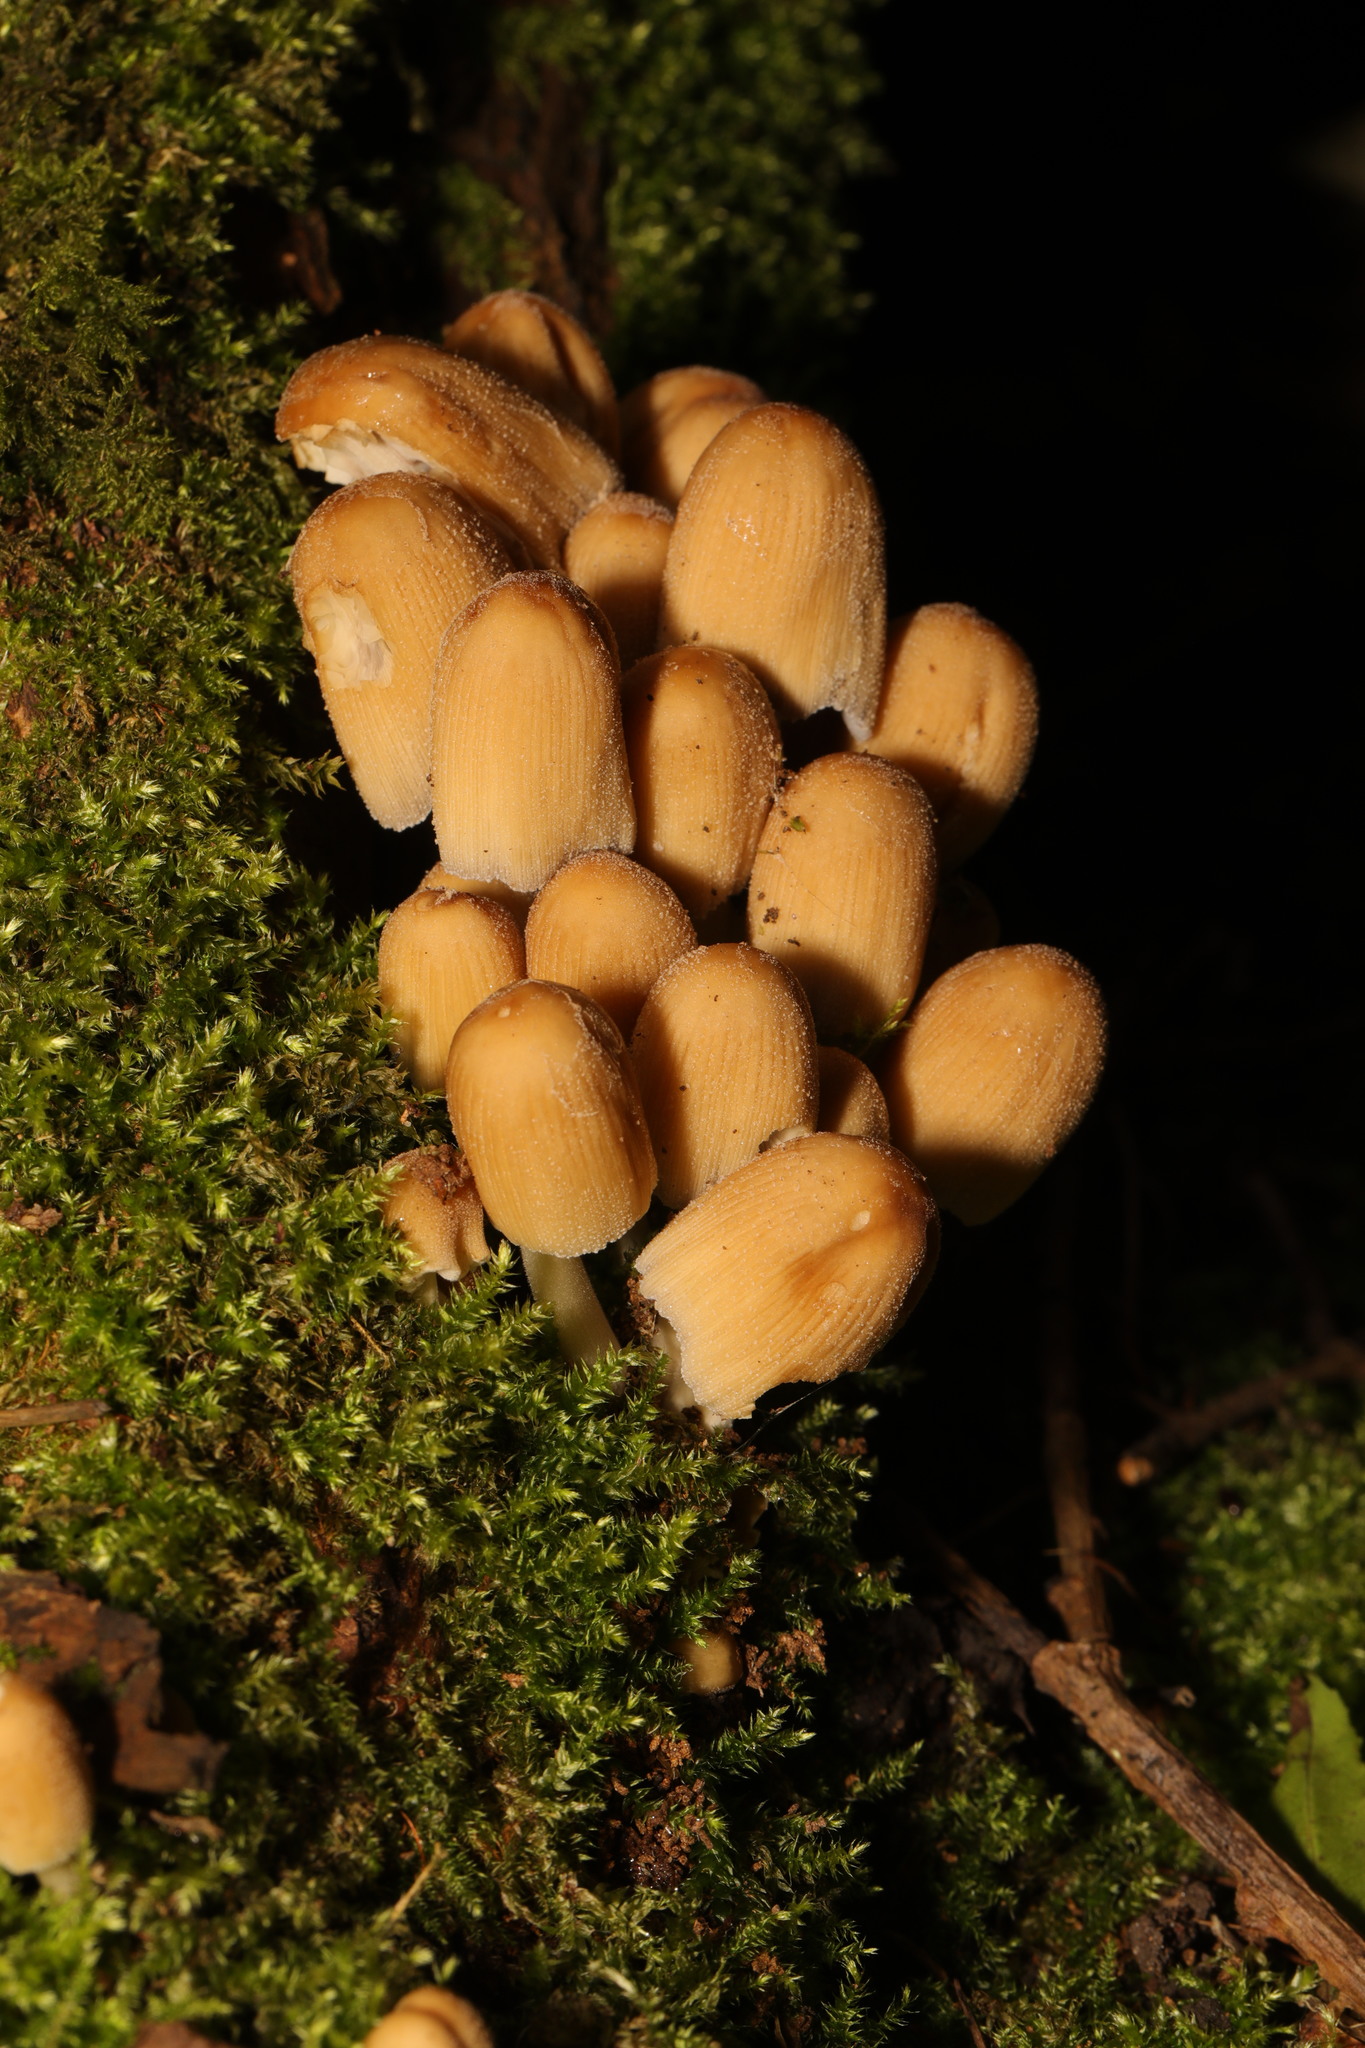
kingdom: Fungi
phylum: Basidiomycota
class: Agaricomycetes
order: Agaricales
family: Psathyrellaceae
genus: Coprinellus
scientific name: Coprinellus disseminatus
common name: Fairies' bonnets
